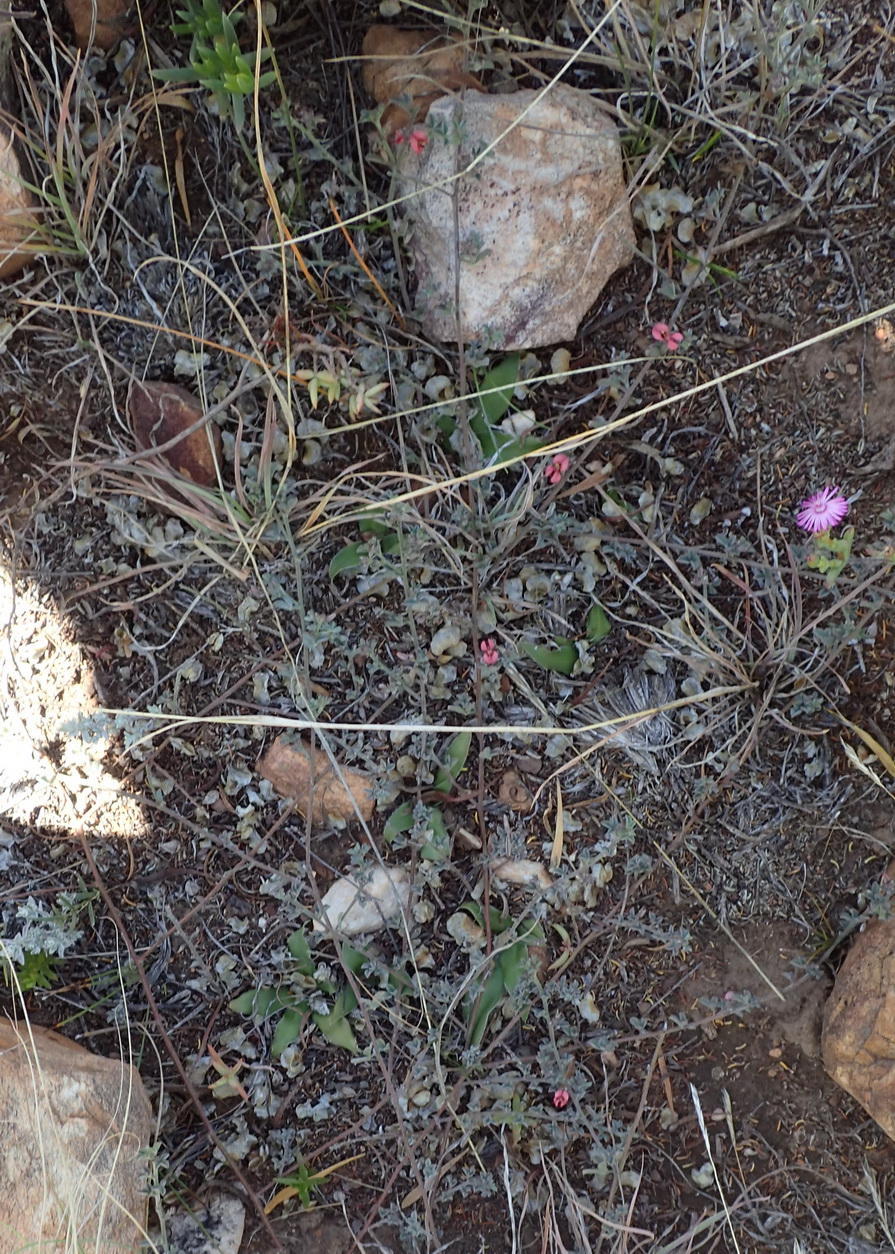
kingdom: Plantae
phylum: Tracheophyta
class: Magnoliopsida
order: Fabales
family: Fabaceae
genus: Indigofera
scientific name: Indigofera priorii
